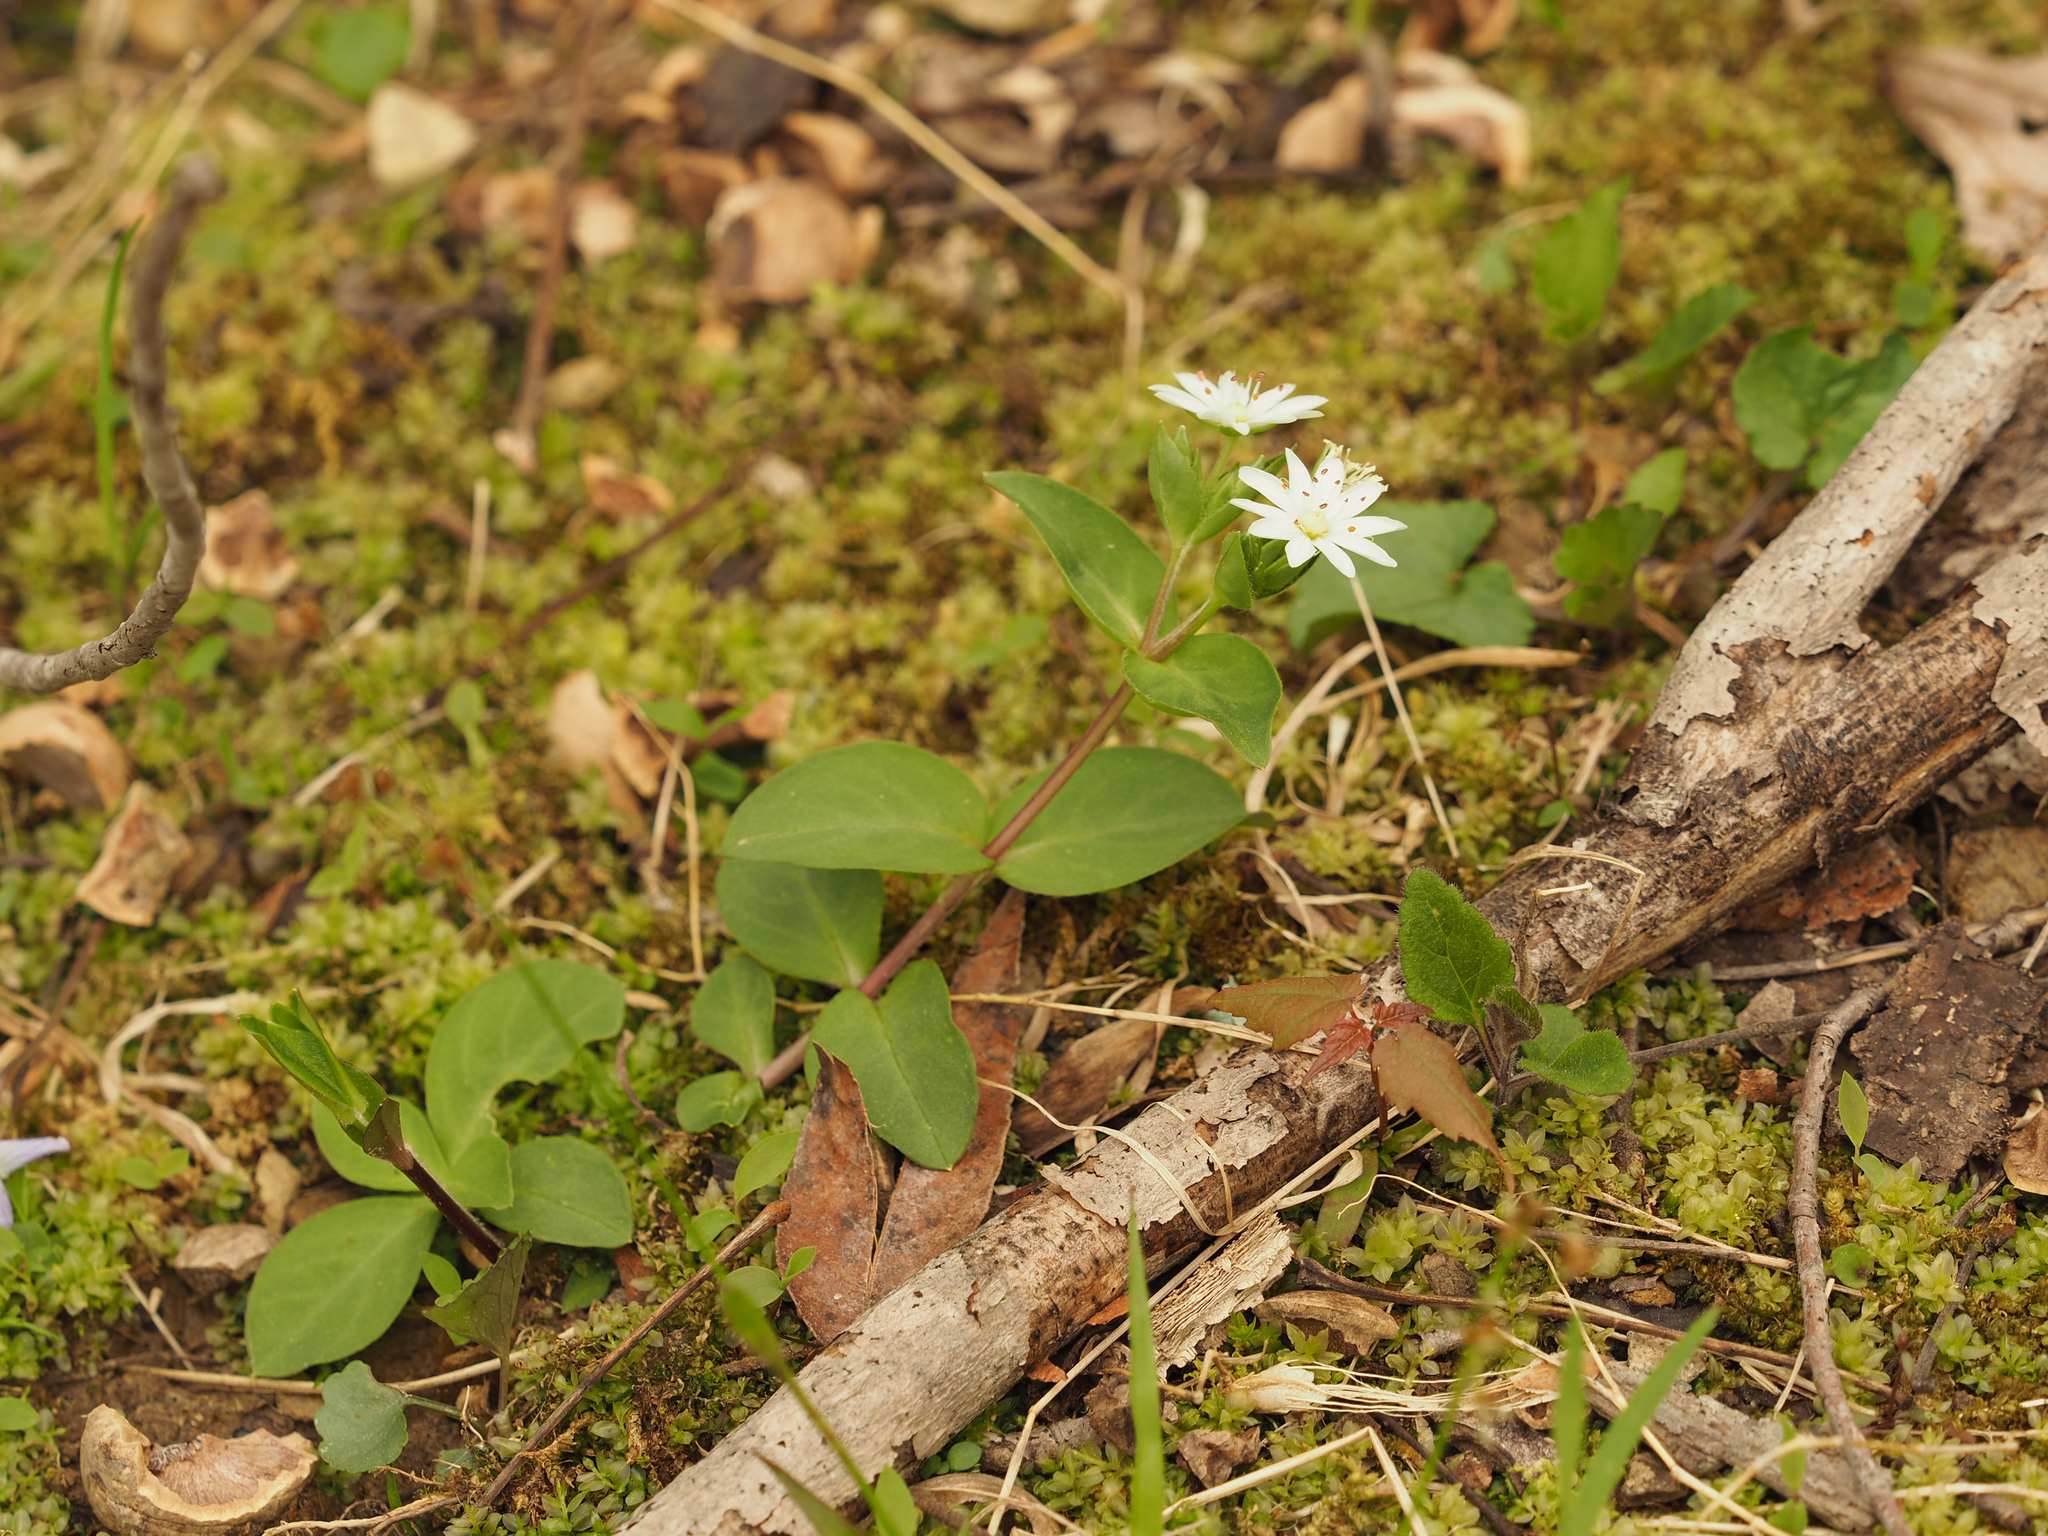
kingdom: Plantae
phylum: Tracheophyta
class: Magnoliopsida
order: Caryophyllales
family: Caryophyllaceae
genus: Stellaria
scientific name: Stellaria pubera
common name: Star chickweed
